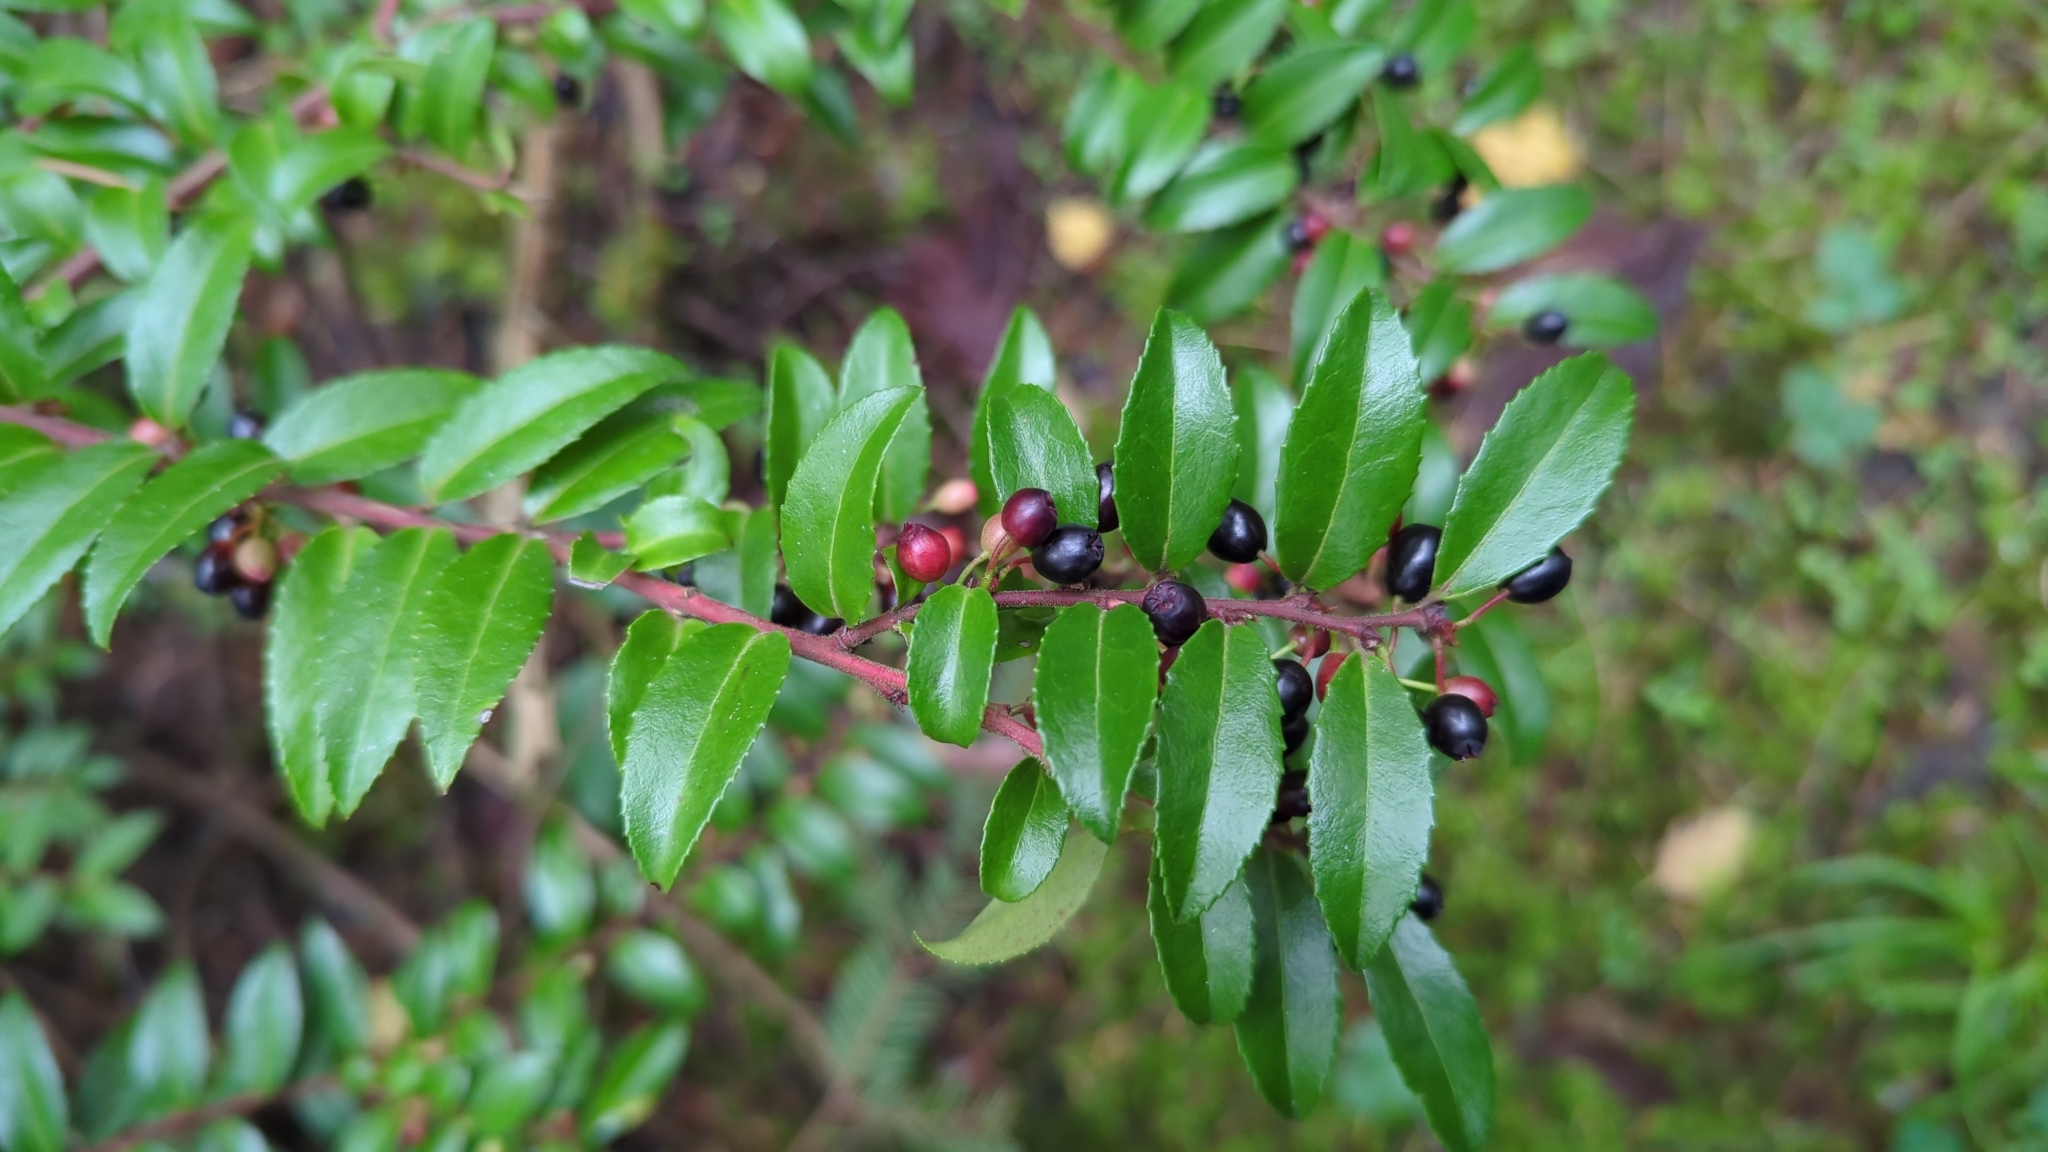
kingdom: Plantae
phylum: Tracheophyta
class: Magnoliopsida
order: Ericales
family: Ericaceae
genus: Vaccinium
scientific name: Vaccinium ovatum
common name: California-huckleberry
